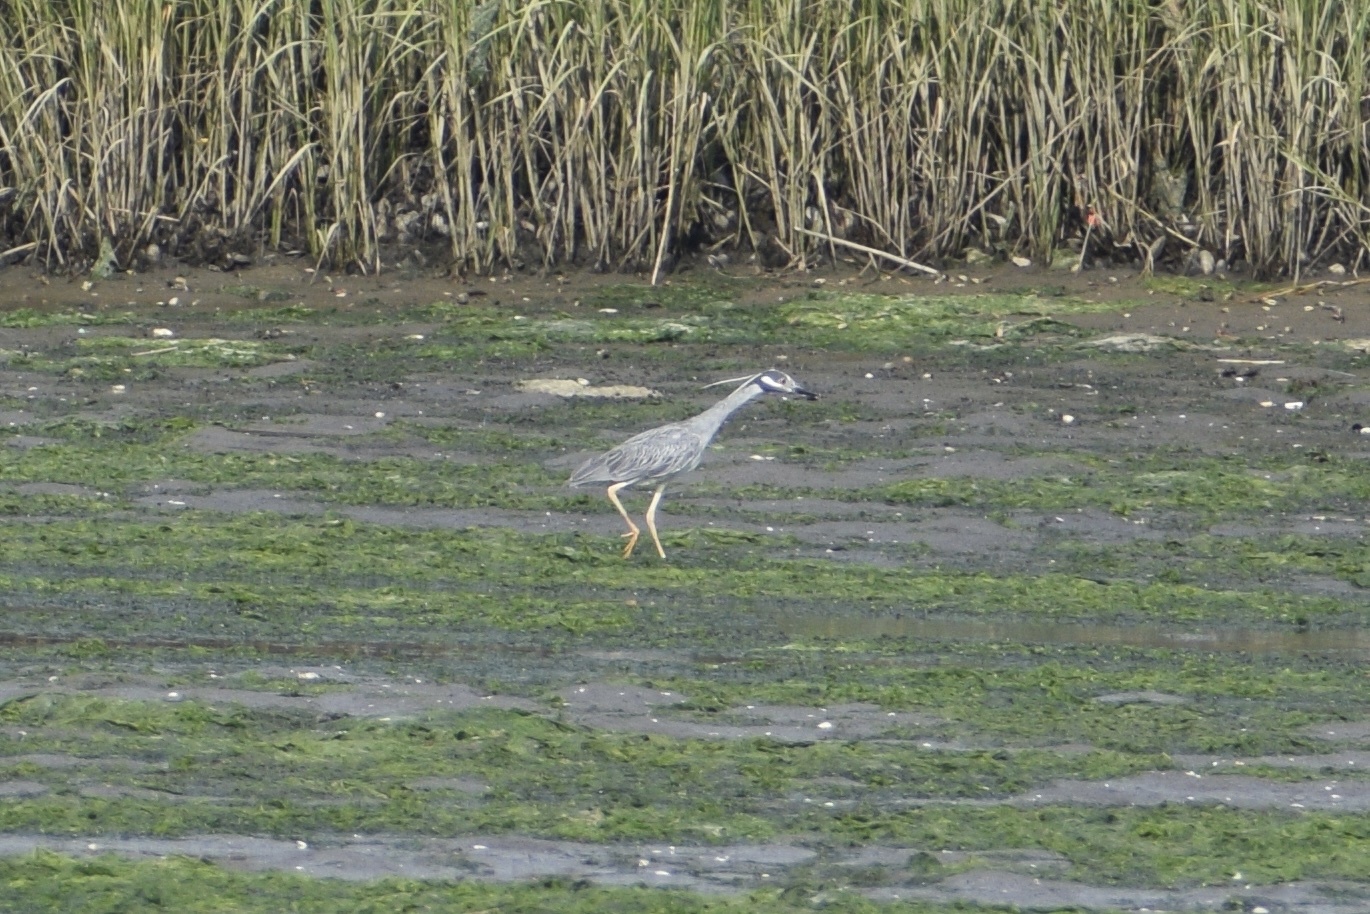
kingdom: Animalia
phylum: Chordata
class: Aves
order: Pelecaniformes
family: Ardeidae
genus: Nyctanassa
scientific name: Nyctanassa violacea
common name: Yellow-crowned night heron
